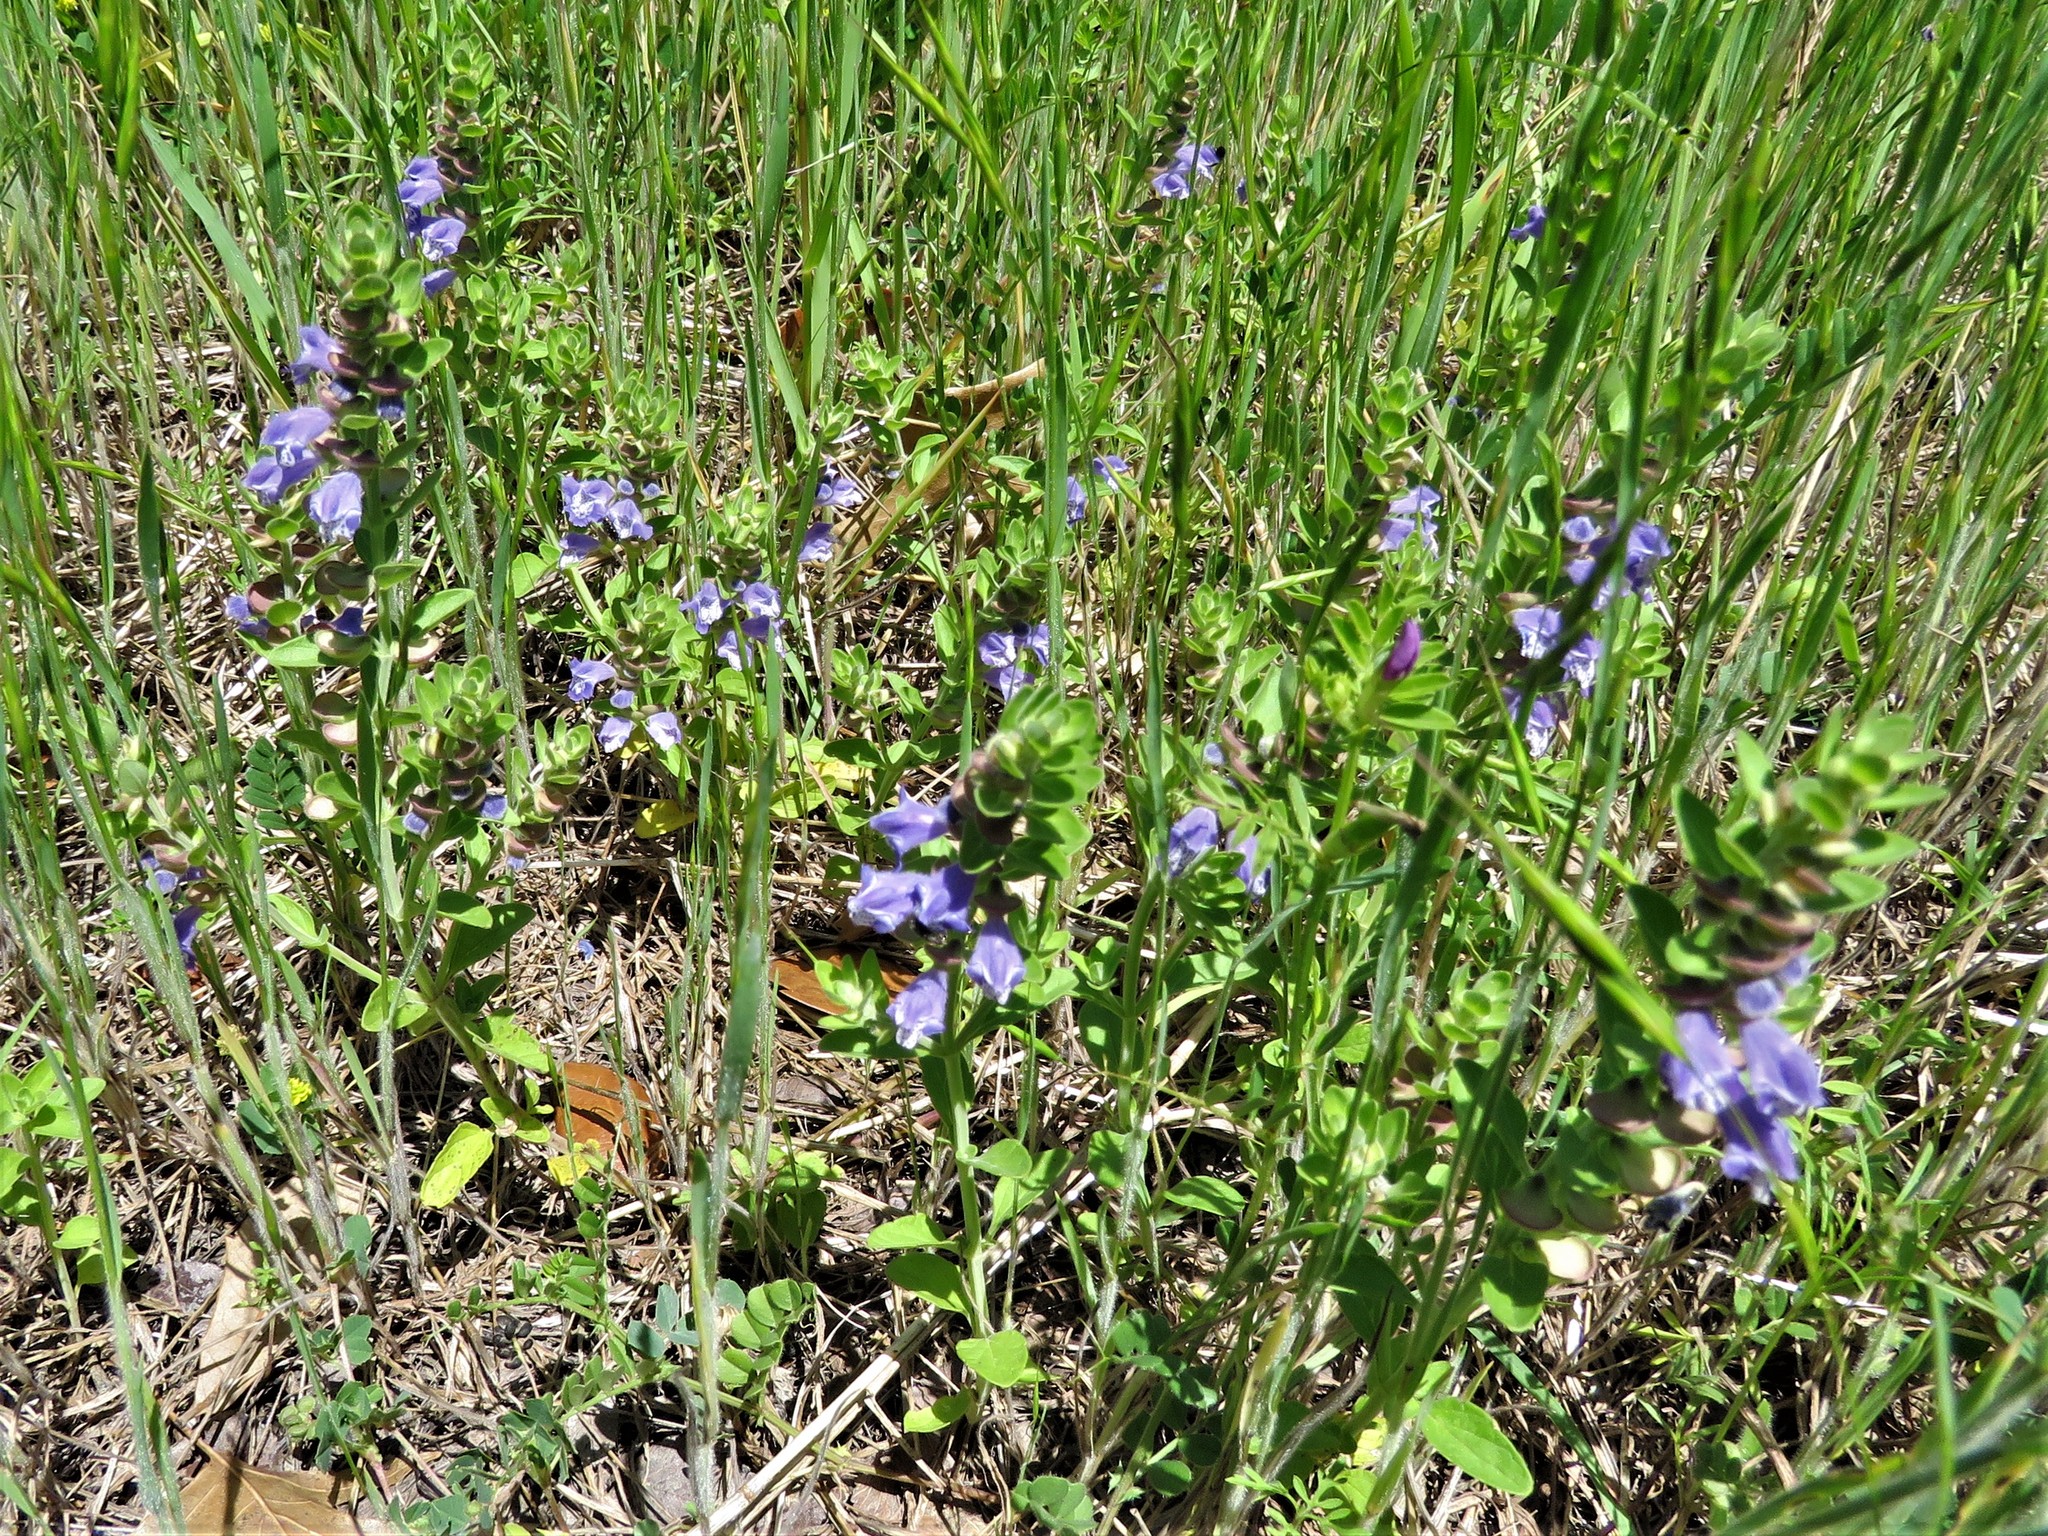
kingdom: Plantae
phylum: Tracheophyta
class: Magnoliopsida
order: Lamiales
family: Lamiaceae
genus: Scutellaria
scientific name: Scutellaria drummondii
